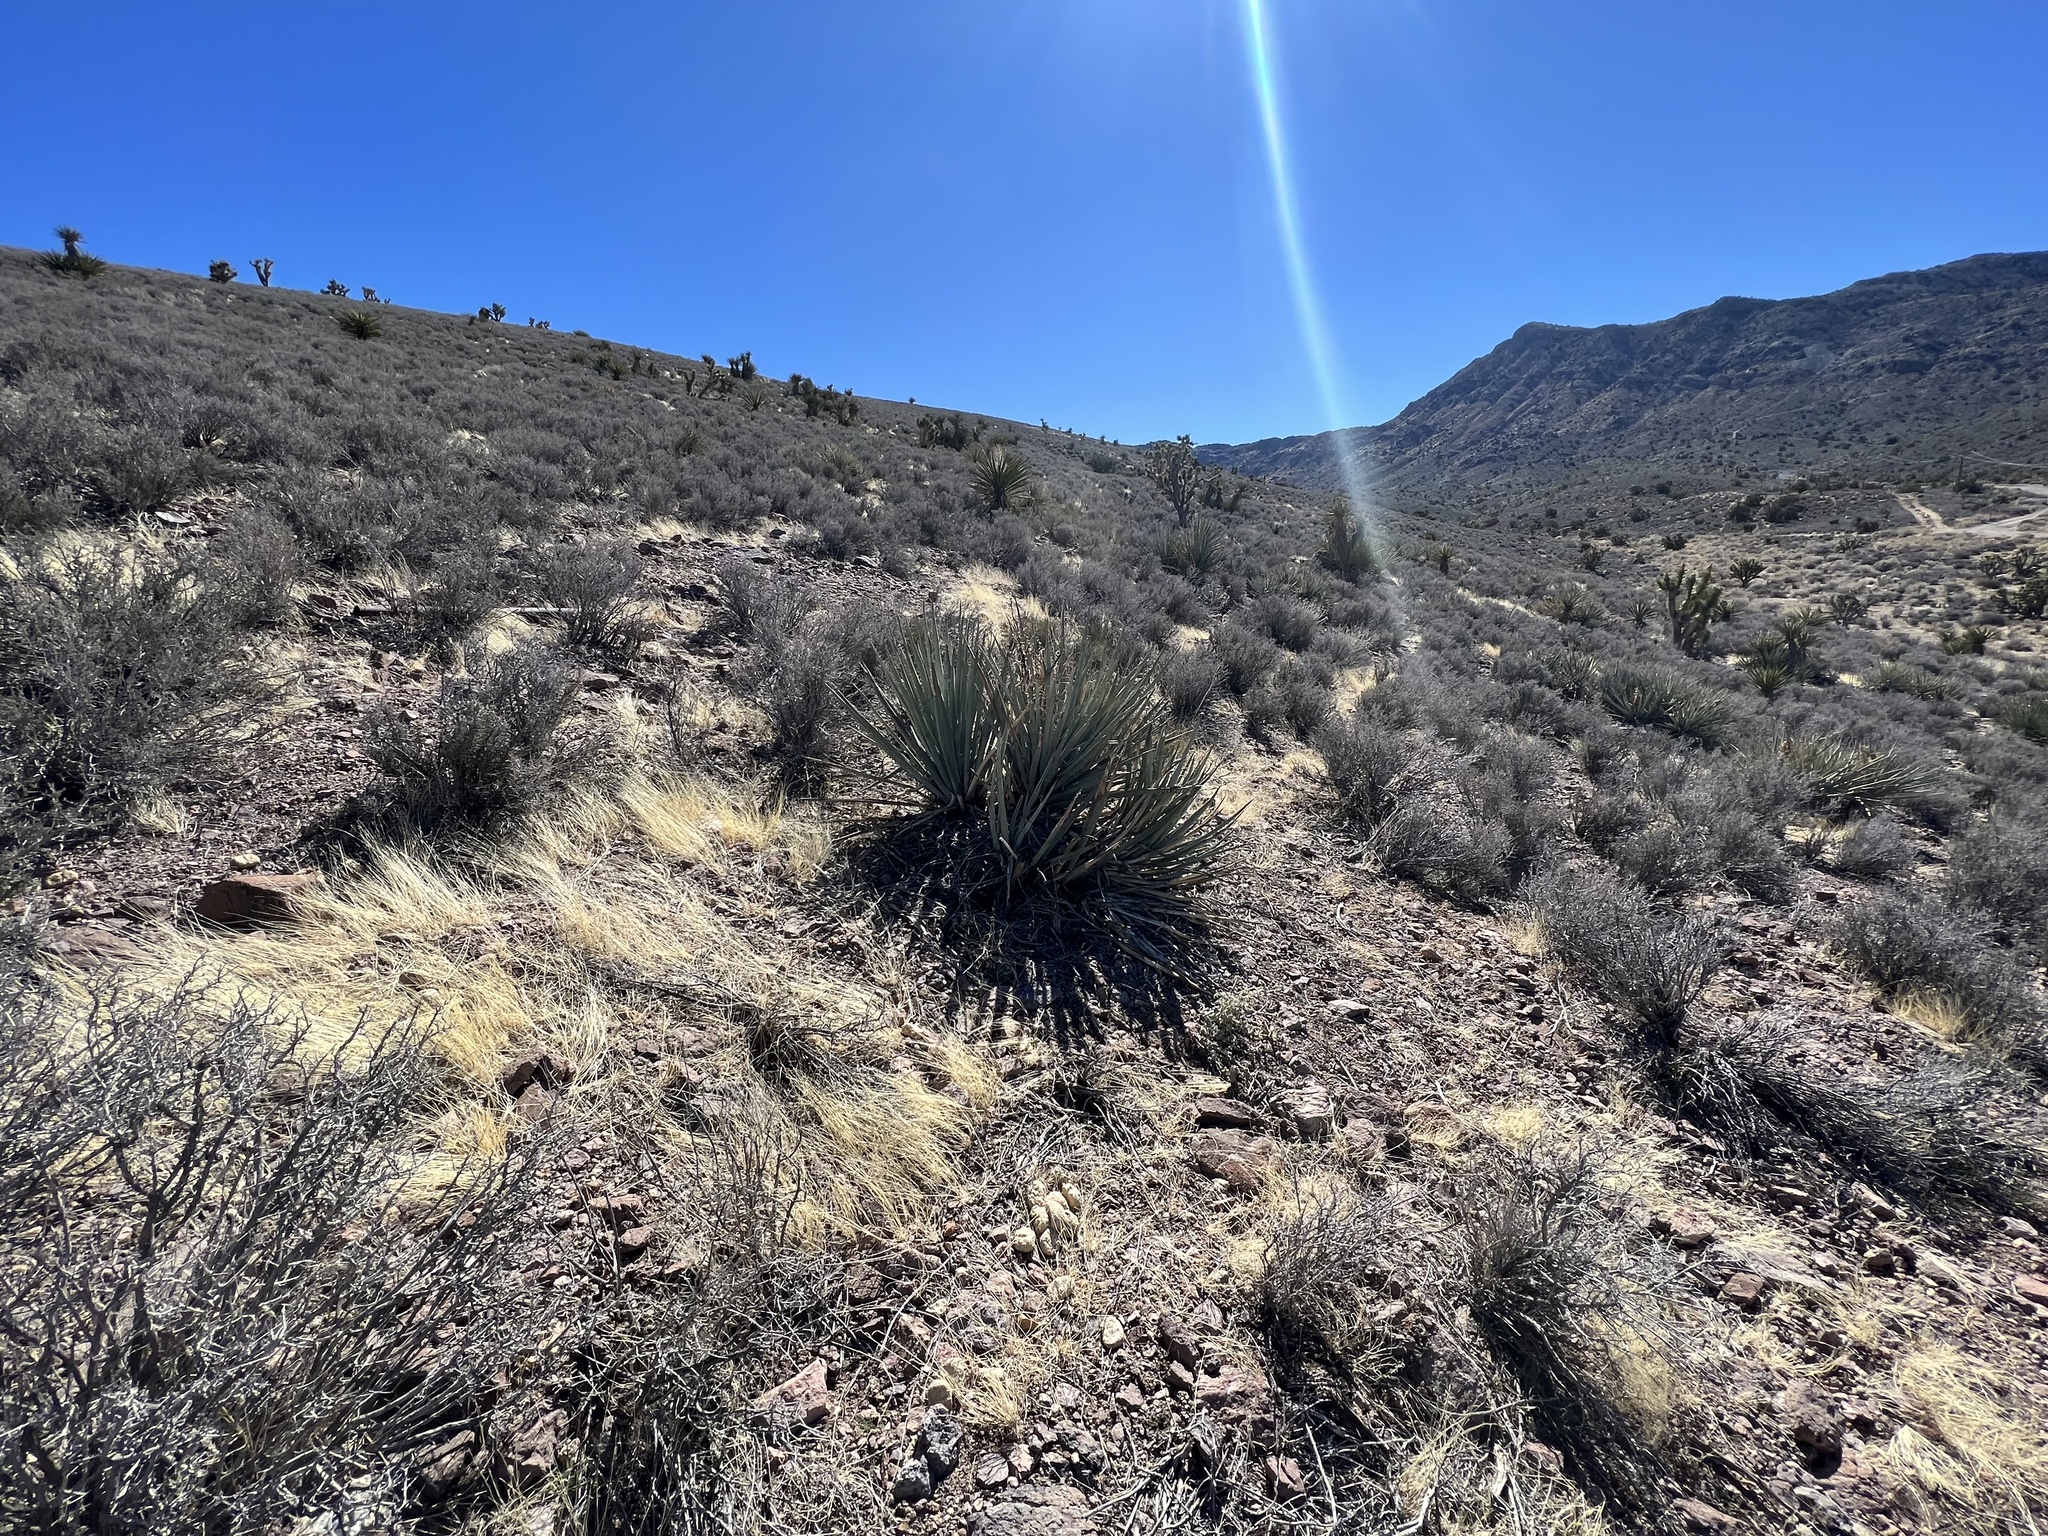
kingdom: Plantae
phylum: Tracheophyta
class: Liliopsida
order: Asparagales
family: Asparagaceae
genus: Yucca
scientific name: Yucca baccata
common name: Banana yucca
